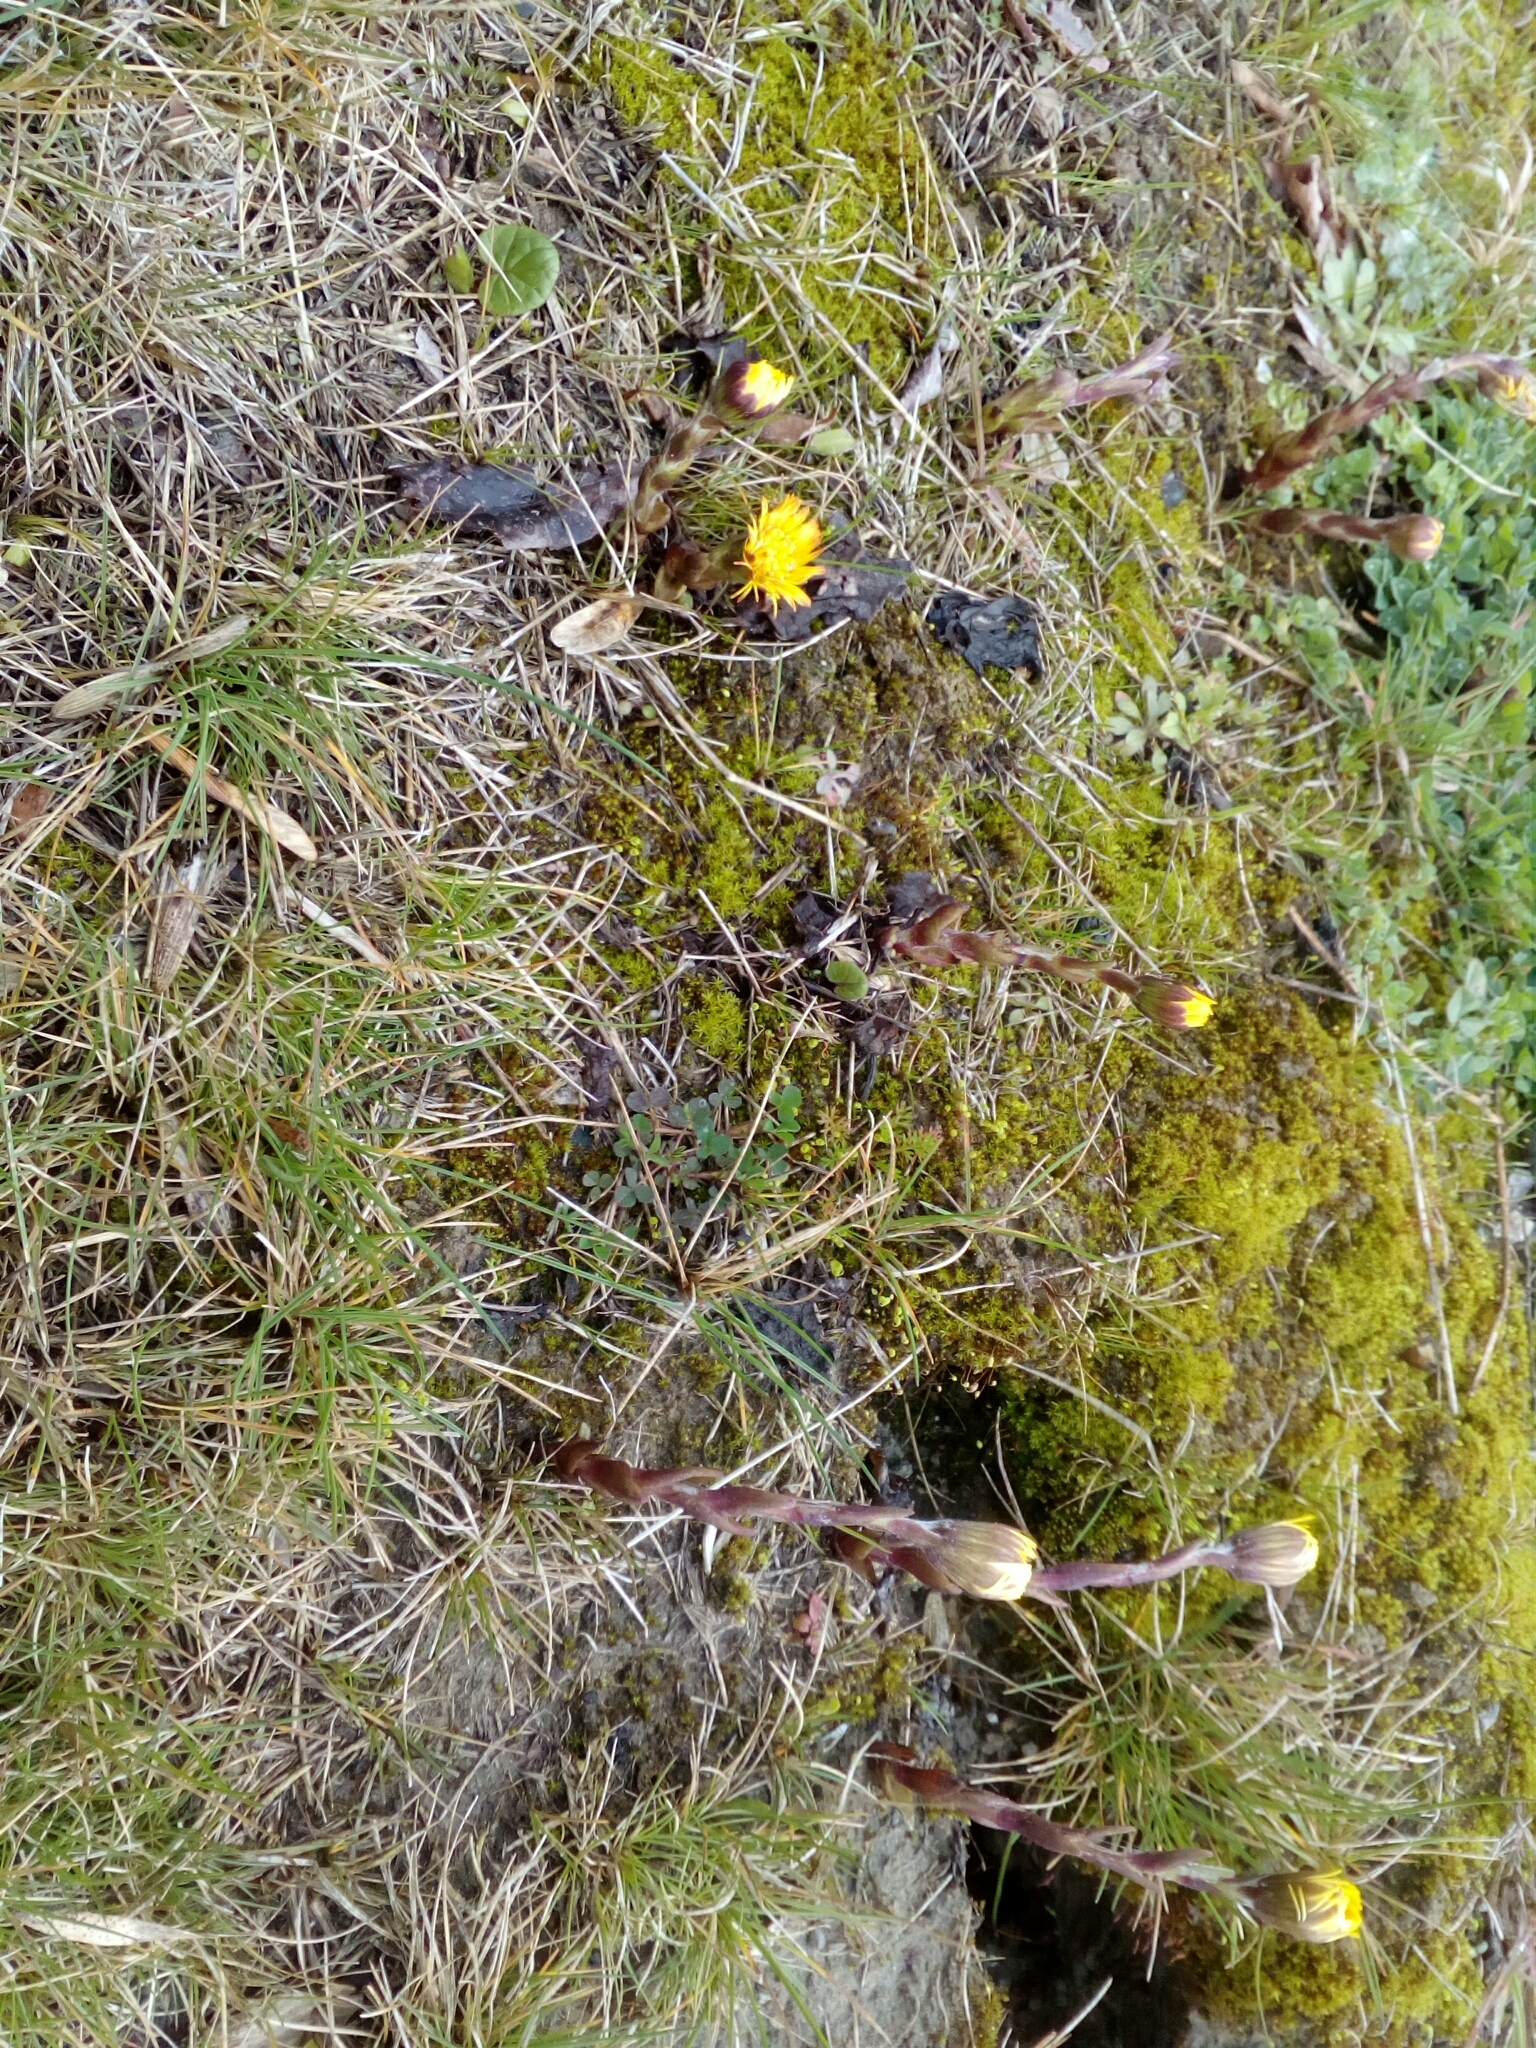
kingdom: Plantae
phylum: Tracheophyta
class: Magnoliopsida
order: Asterales
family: Asteraceae
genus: Tussilago
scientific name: Tussilago farfara
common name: Coltsfoot
